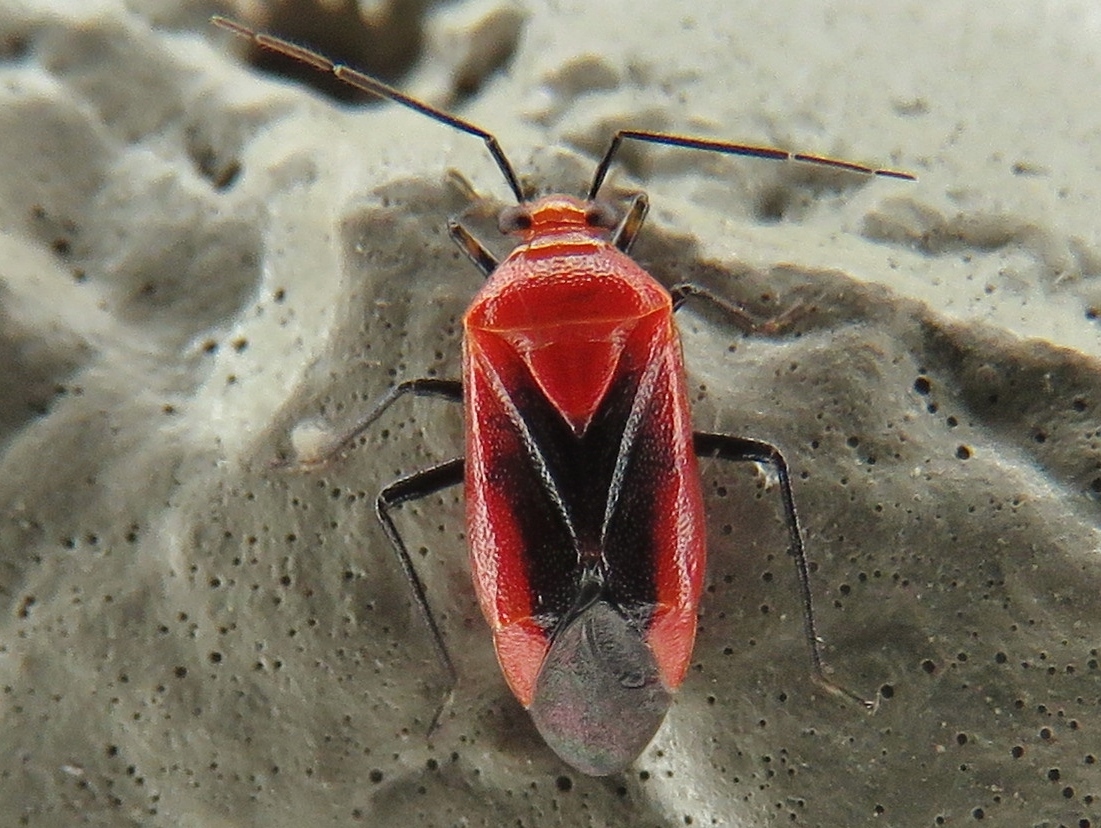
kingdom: Animalia
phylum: Arthropoda
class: Insecta
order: Hemiptera
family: Miridae
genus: Tropidosteptes
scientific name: Tropidosteptes cardinalis
